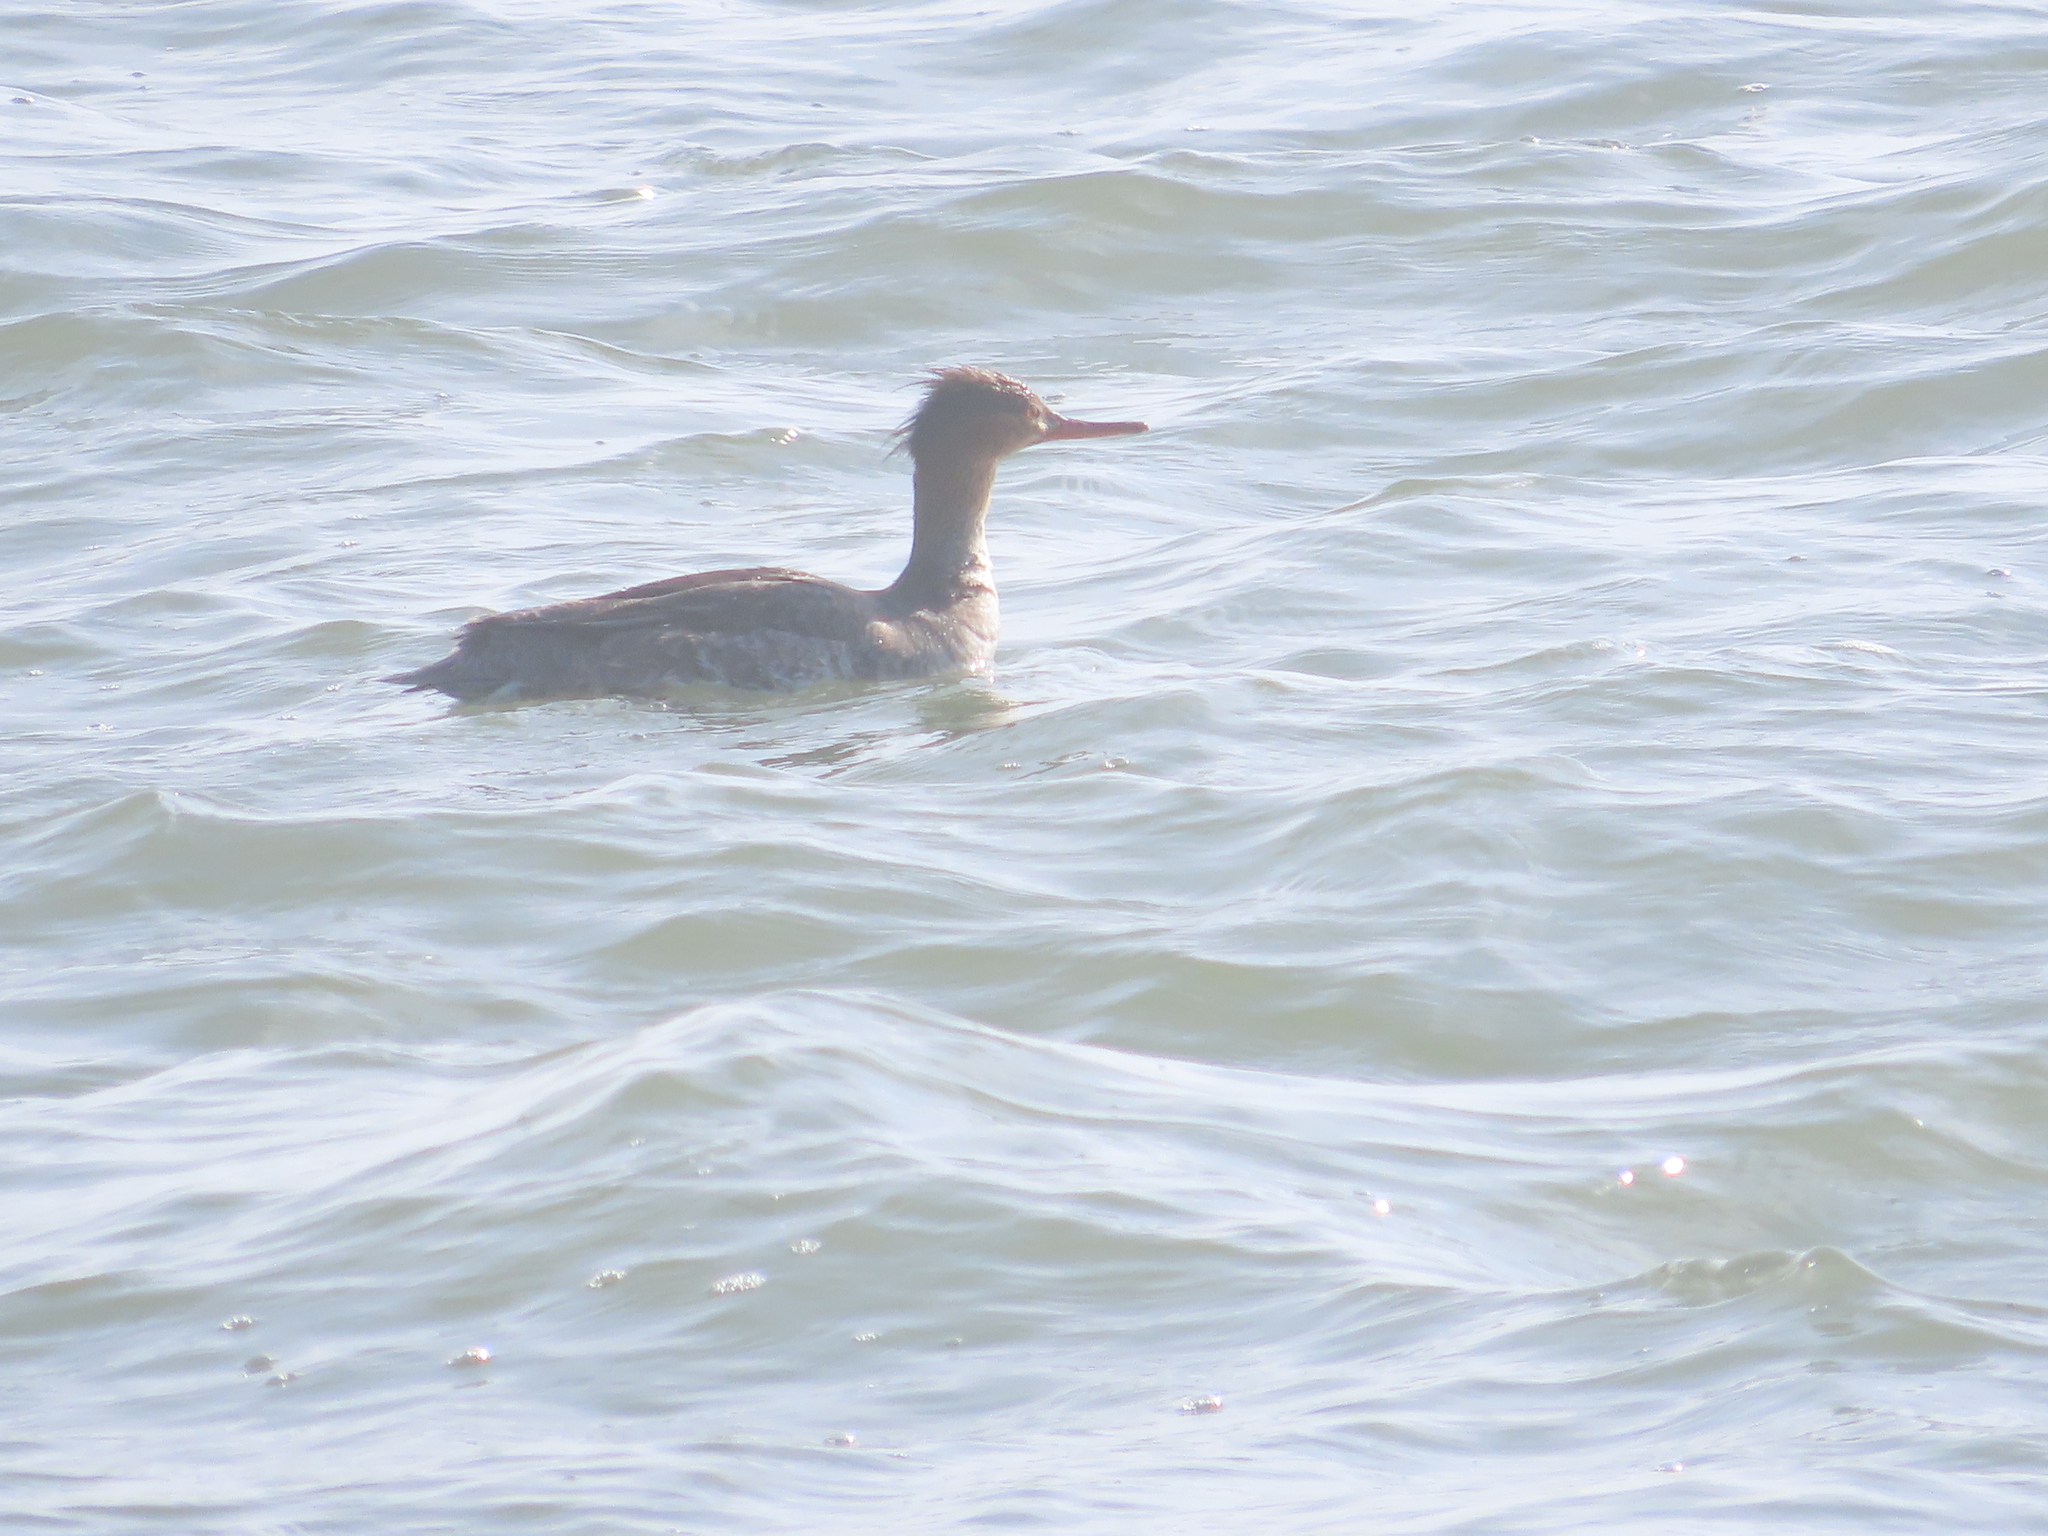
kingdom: Animalia
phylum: Chordata
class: Aves
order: Anseriformes
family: Anatidae
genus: Mergus
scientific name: Mergus serrator
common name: Red-breasted merganser
